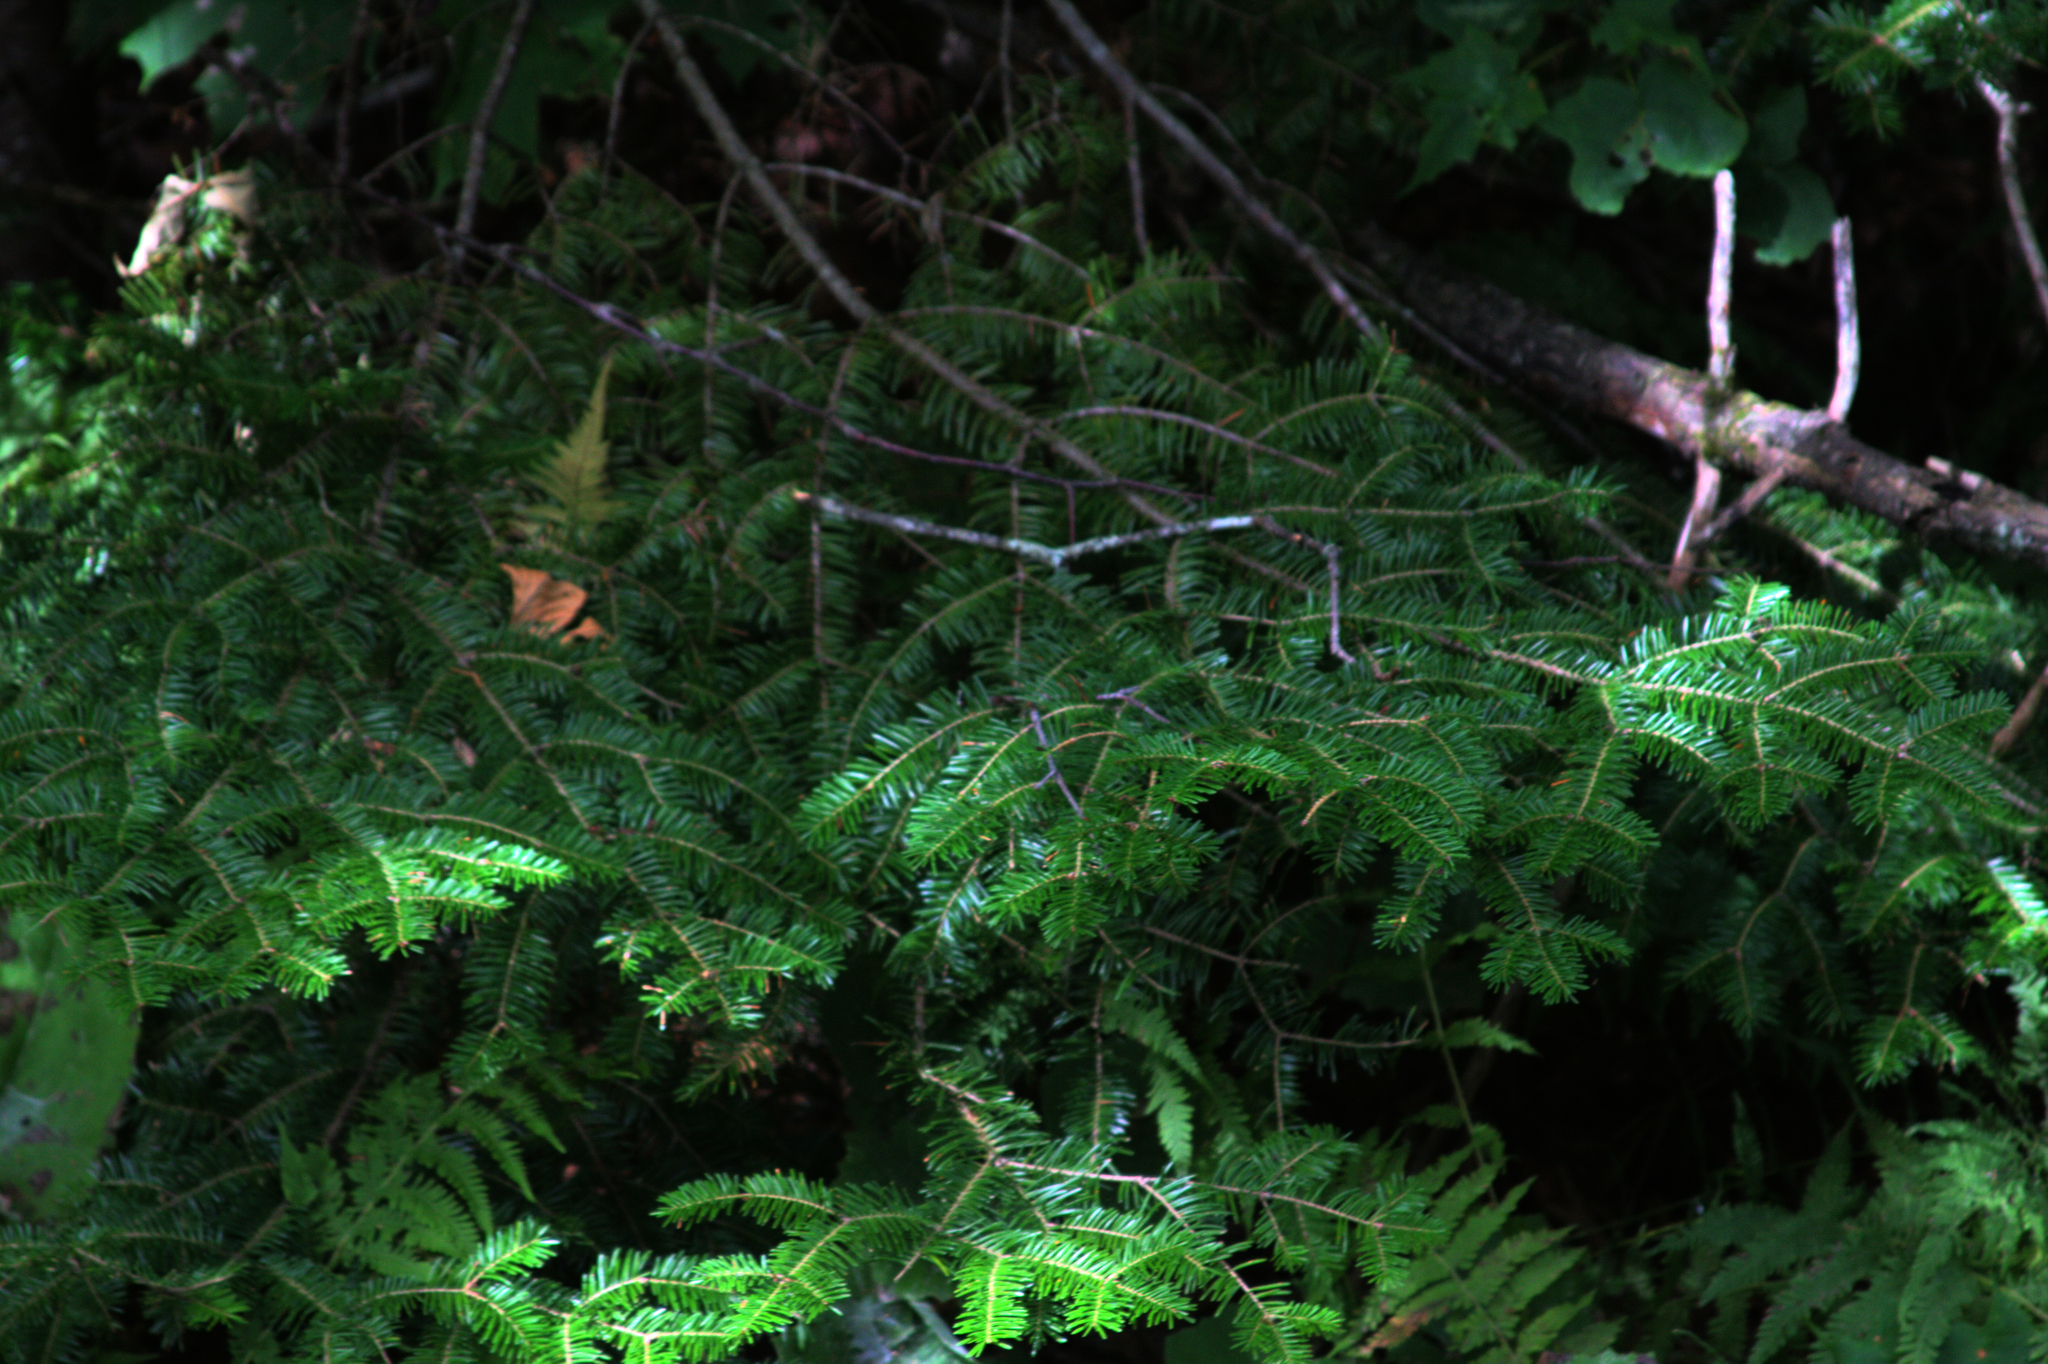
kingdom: Plantae
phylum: Tracheophyta
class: Pinopsida
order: Pinales
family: Pinaceae
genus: Abies
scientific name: Abies balsamea
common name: Balsam fir
